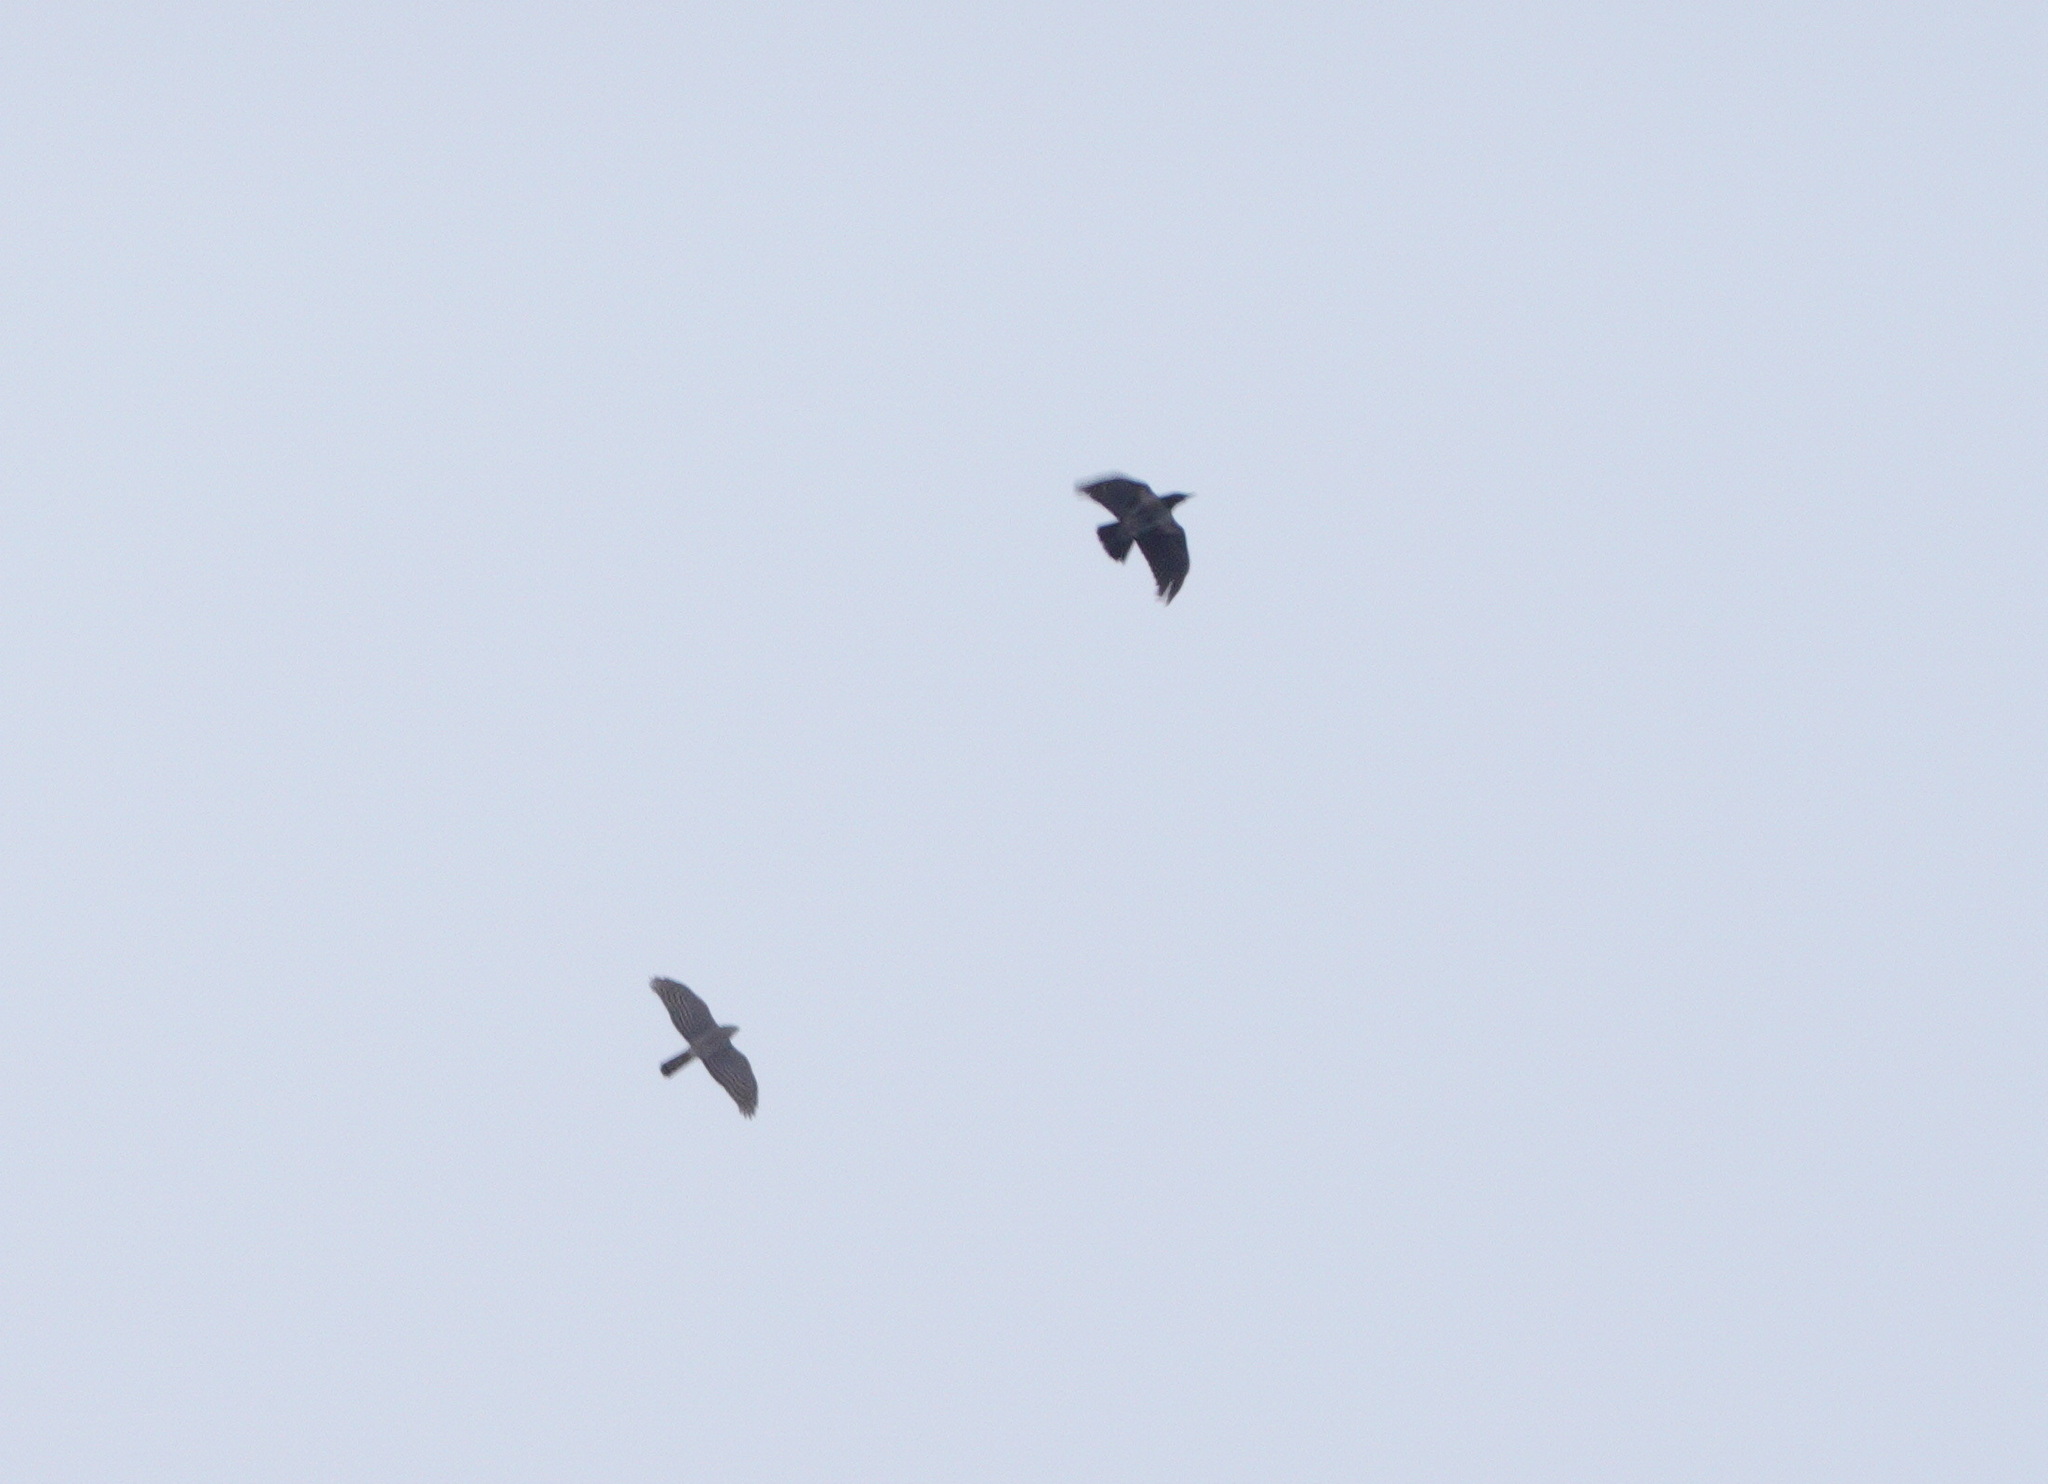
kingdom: Animalia
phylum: Chordata
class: Aves
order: Accipitriformes
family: Accipitridae
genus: Accipiter
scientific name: Accipiter nisus
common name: Eurasian sparrowhawk
